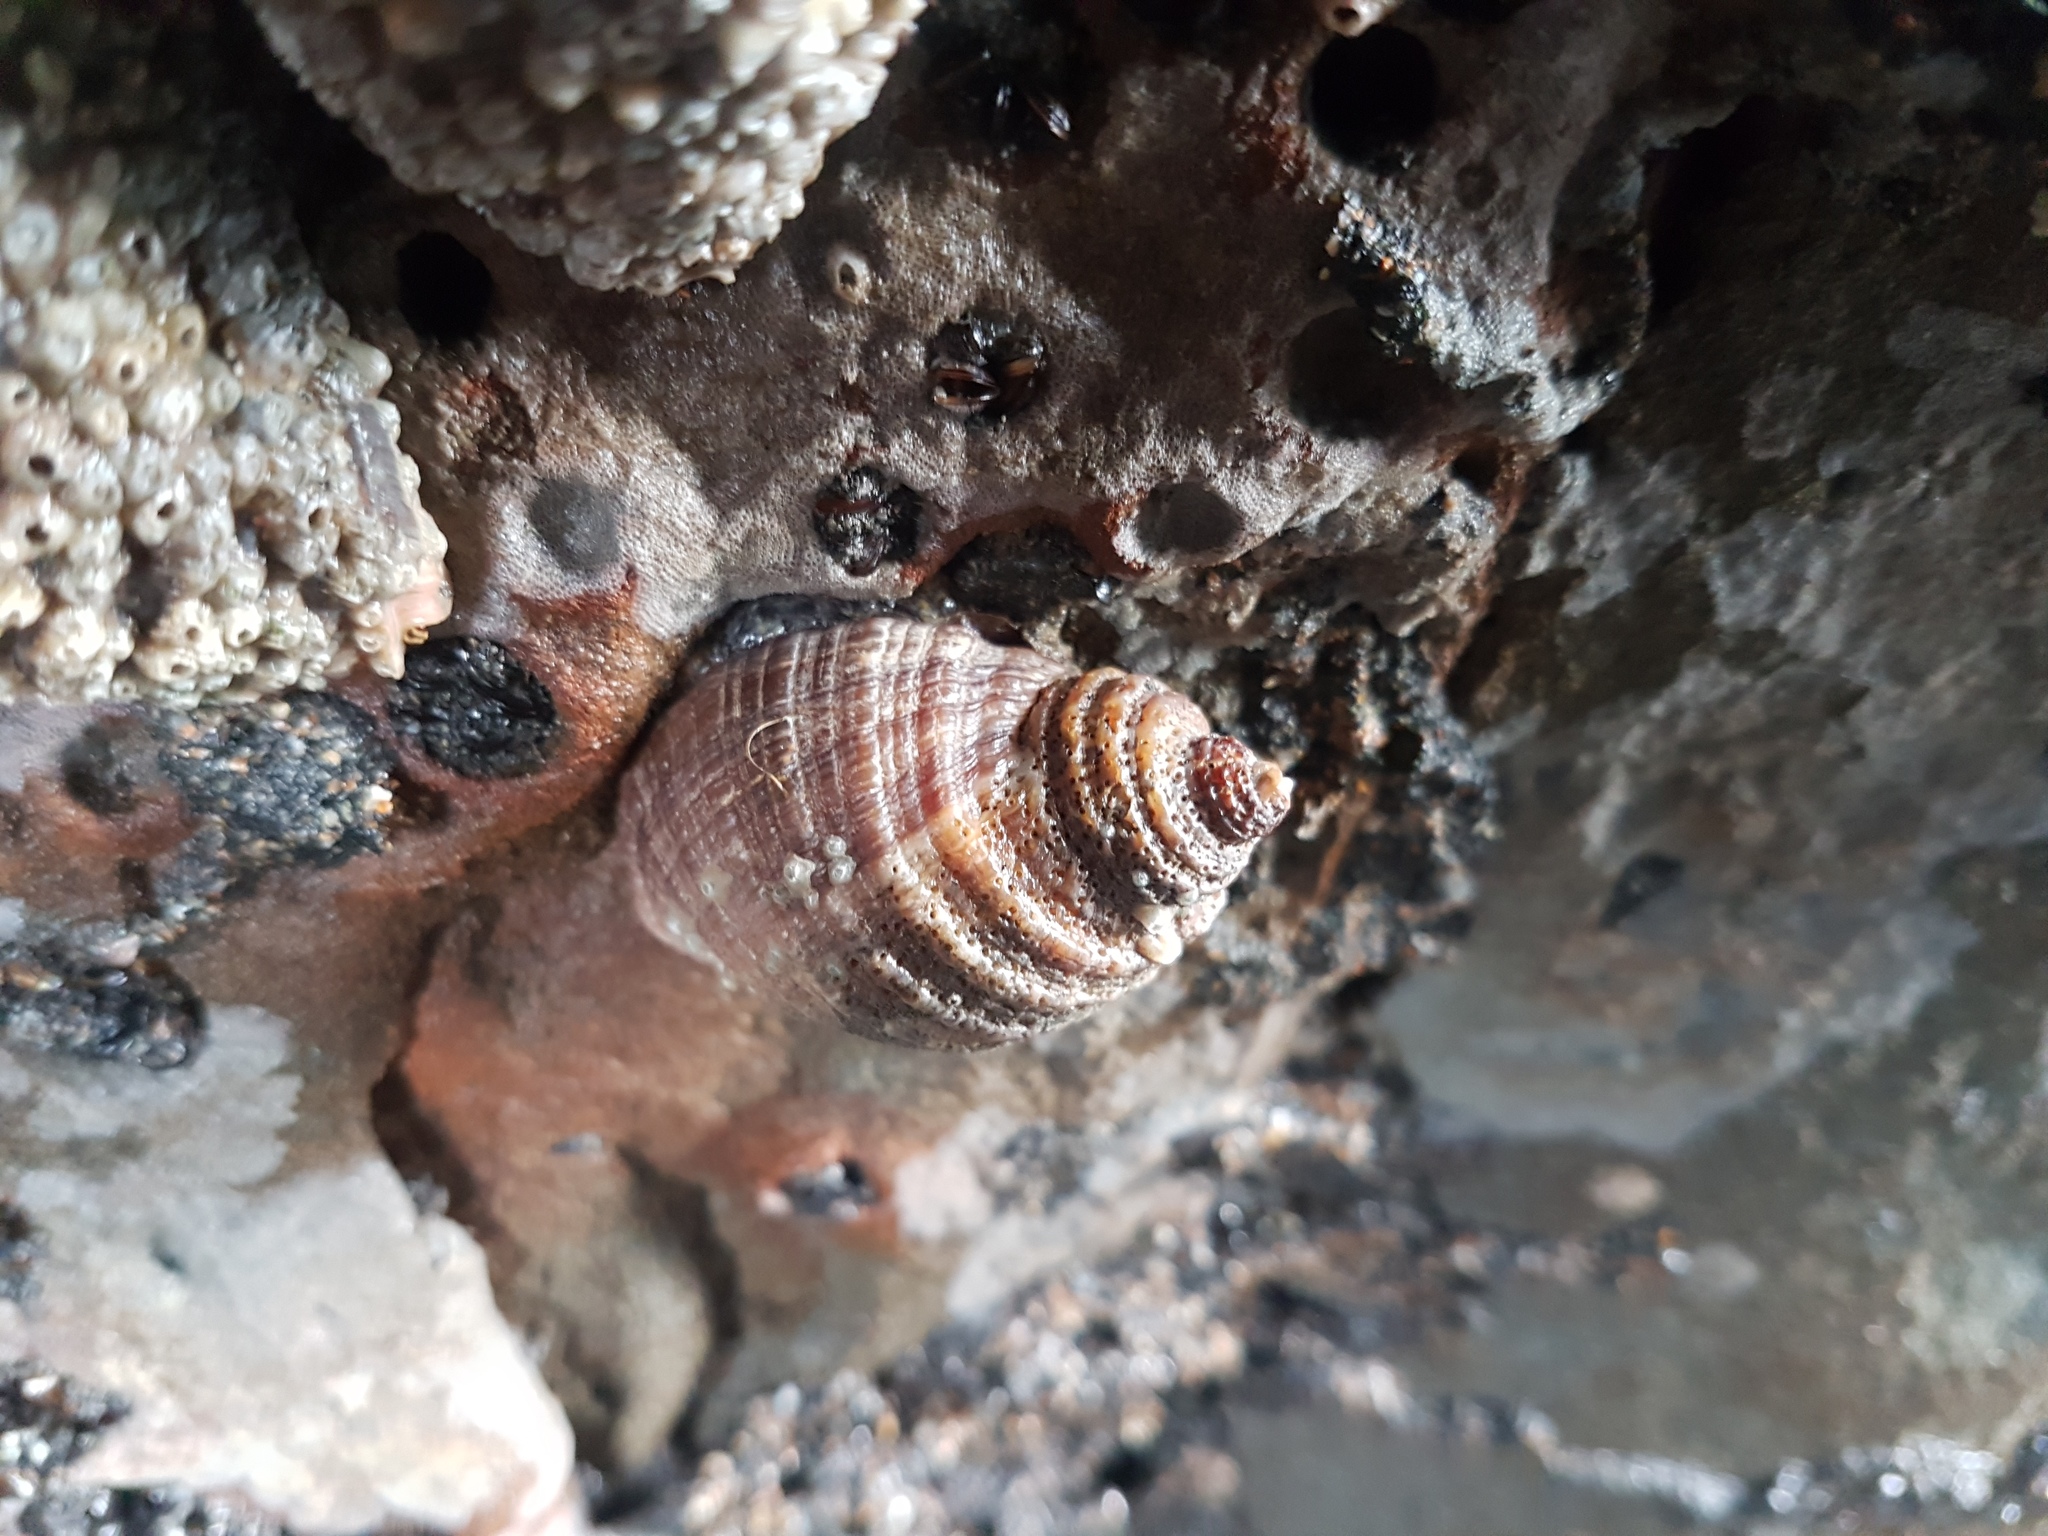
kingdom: Animalia
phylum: Mollusca
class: Gastropoda
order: Neogastropoda
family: Muricidae
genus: Dicathais
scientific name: Dicathais orbita
